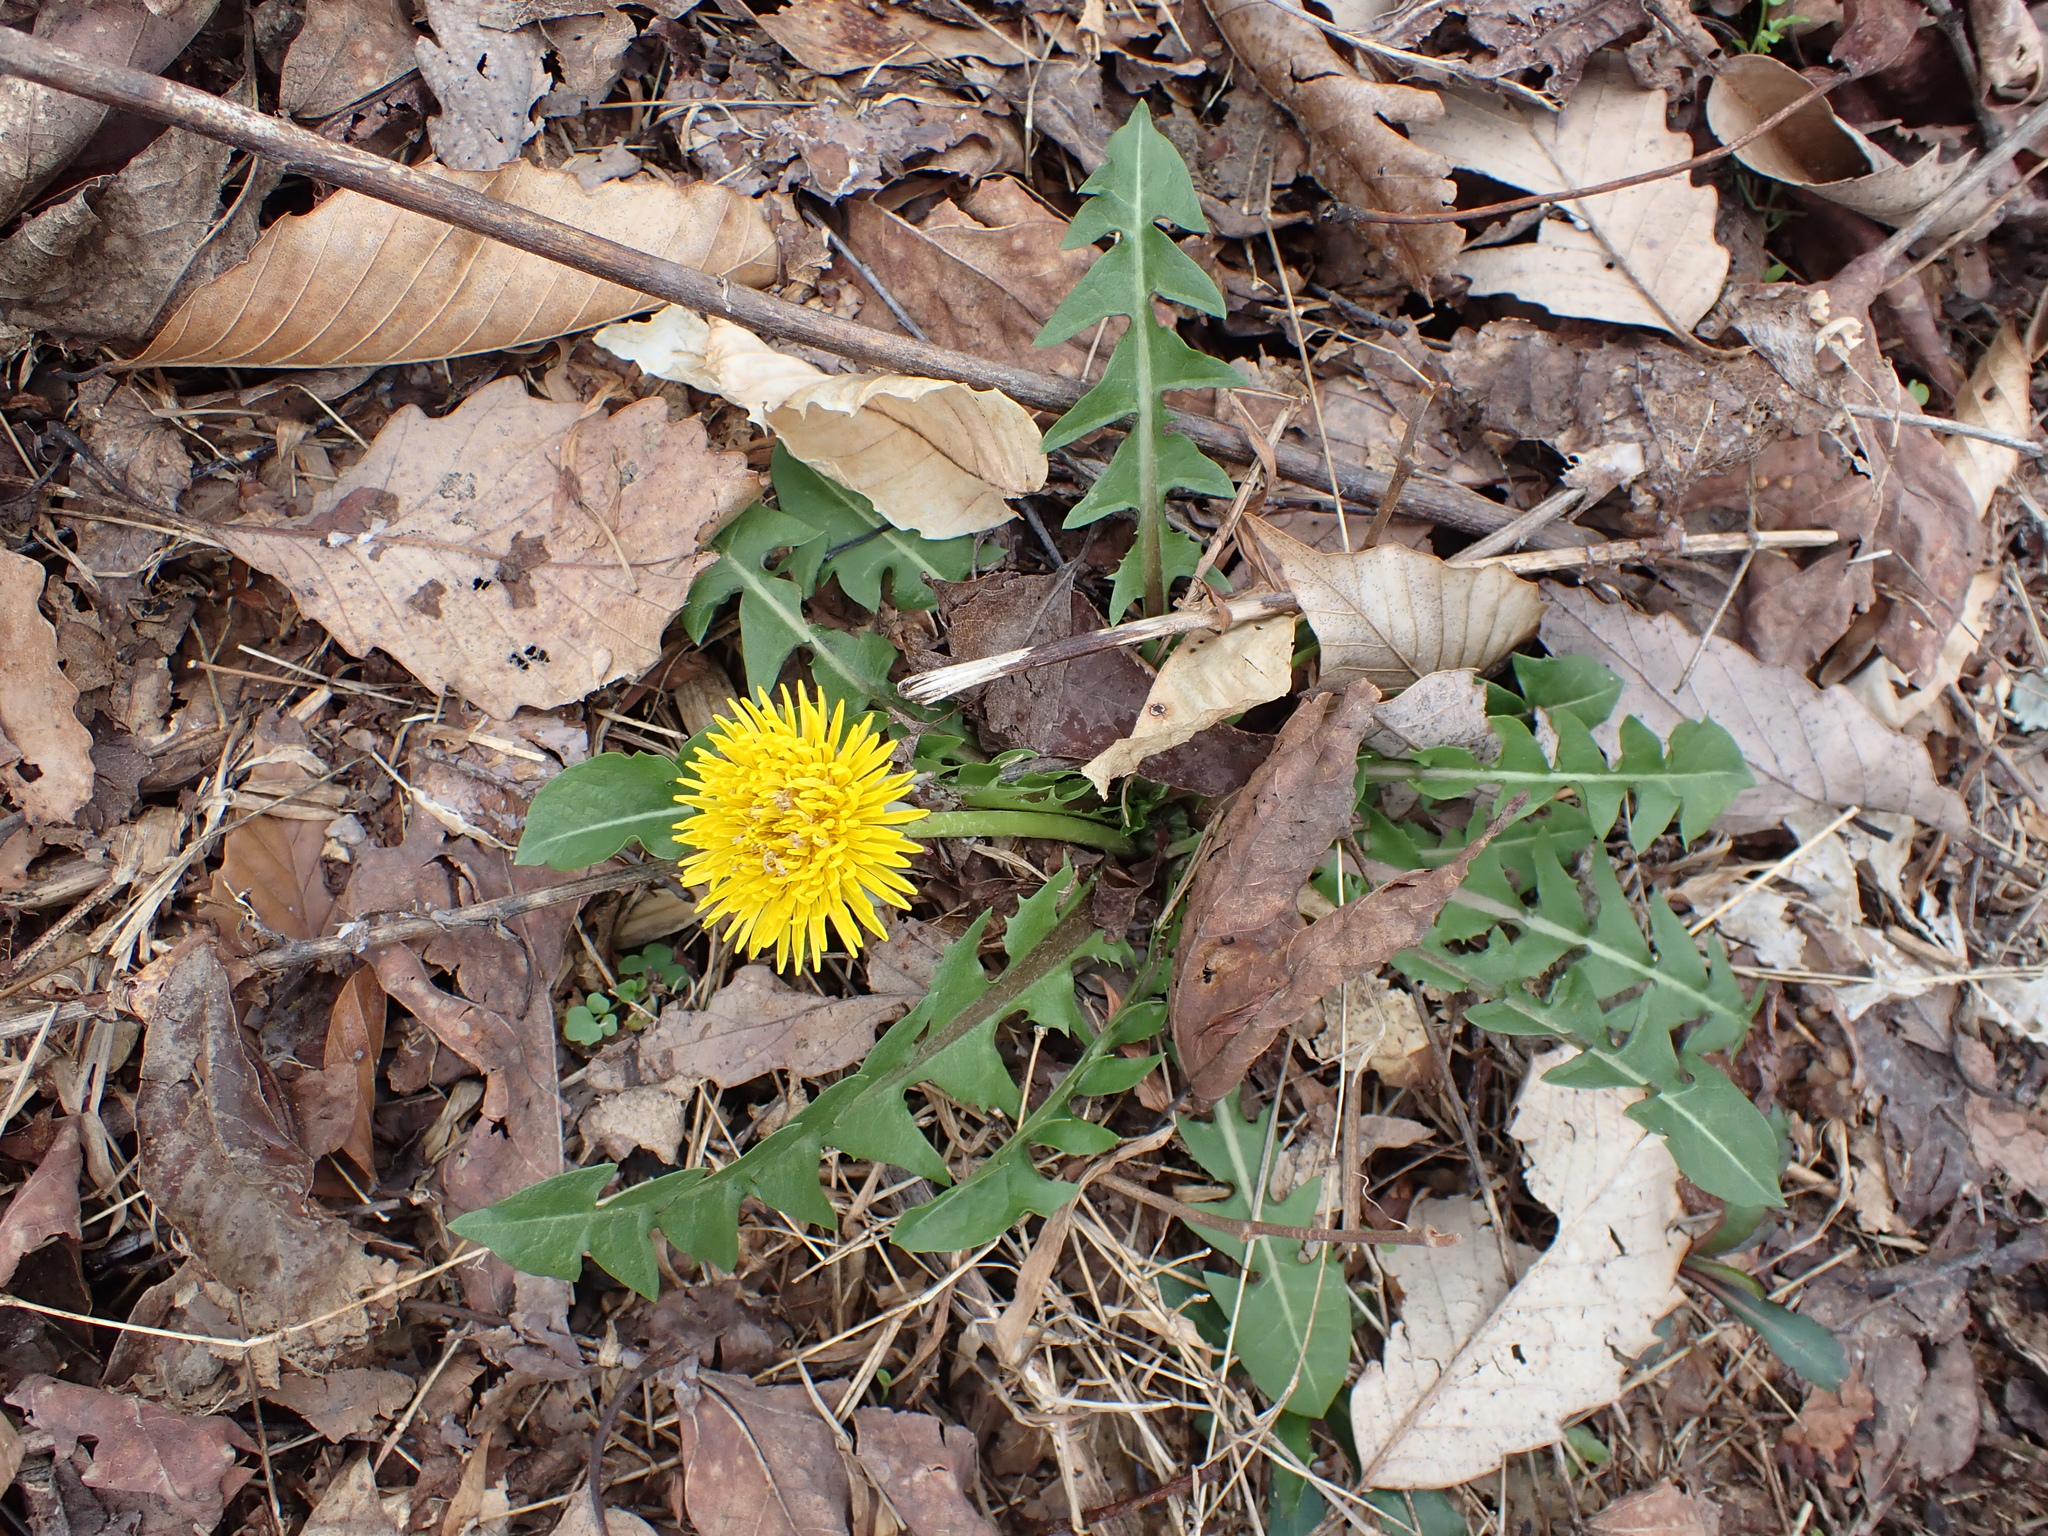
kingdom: Plantae
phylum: Tracheophyta
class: Magnoliopsida
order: Asterales
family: Asteraceae
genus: Taraxacum
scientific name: Taraxacum officinale
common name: Common dandelion
